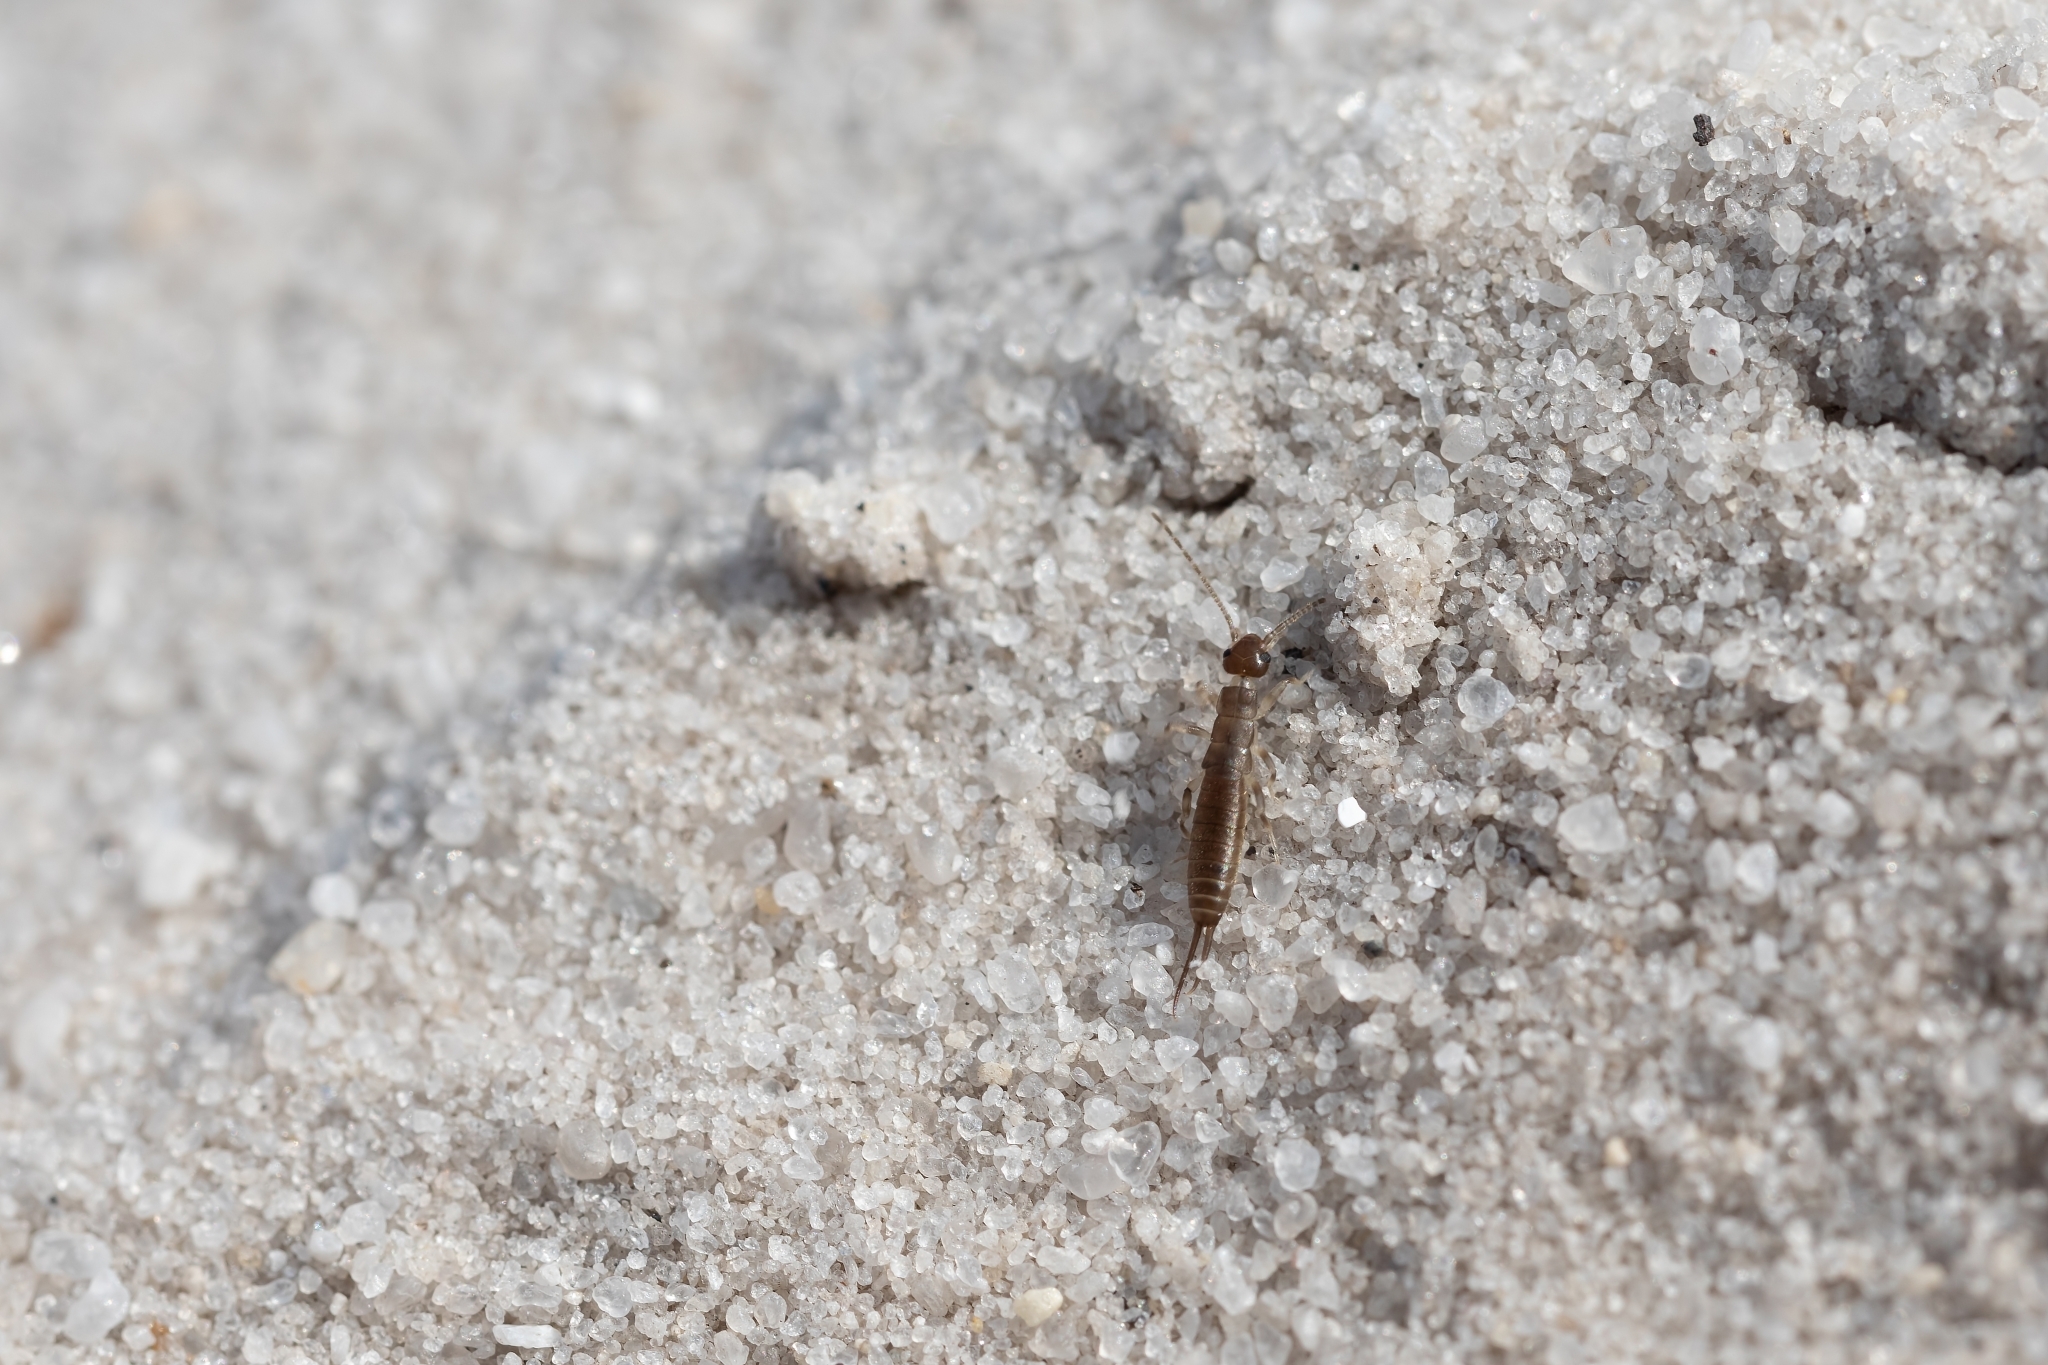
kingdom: Animalia
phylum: Arthropoda
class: Insecta
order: Dermaptera
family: Labiduridae
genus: Labidura
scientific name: Labidura riparia
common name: Striped earwig
